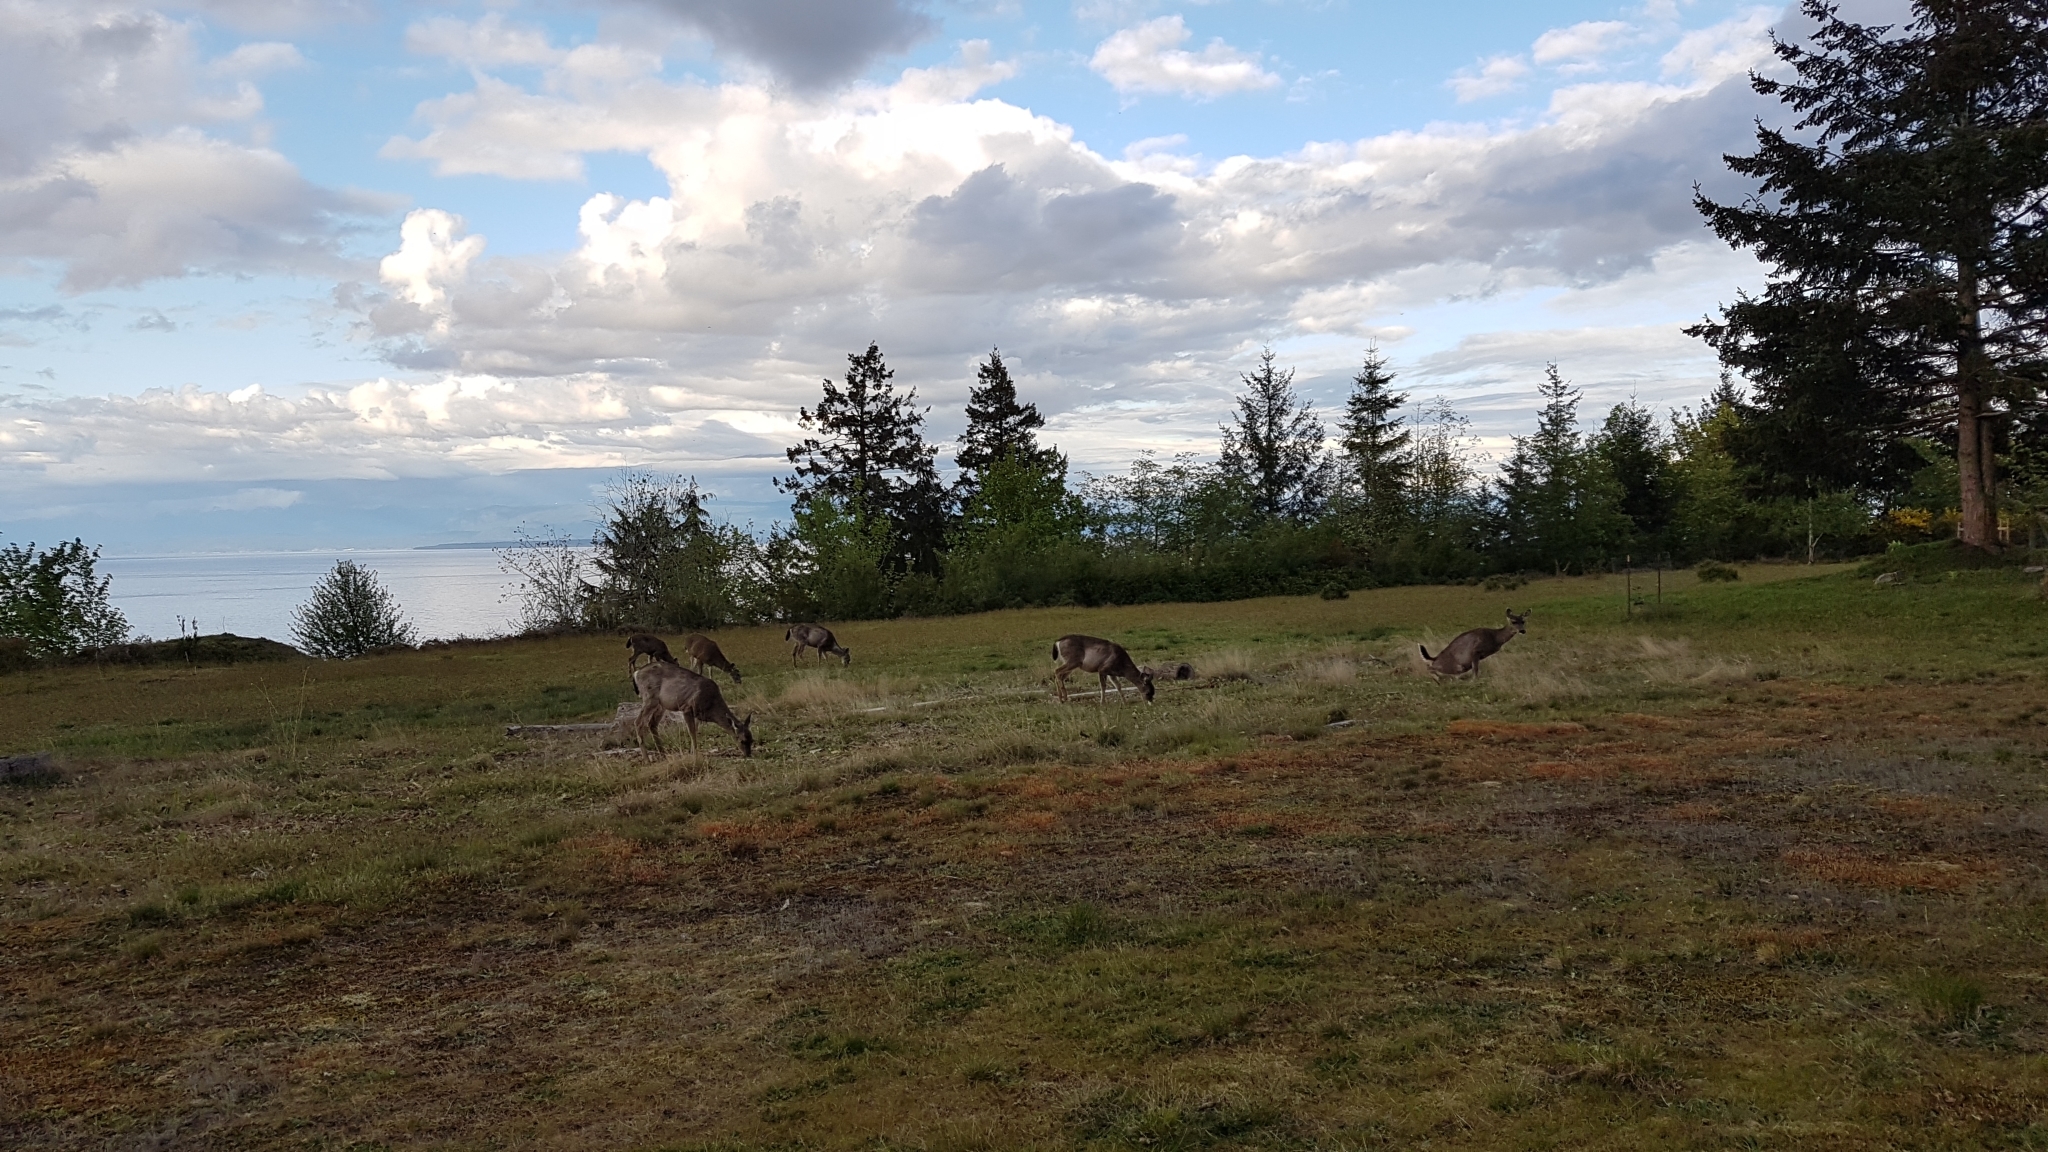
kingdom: Animalia
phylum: Chordata
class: Mammalia
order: Artiodactyla
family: Cervidae
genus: Odocoileus
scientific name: Odocoileus hemionus
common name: Mule deer
